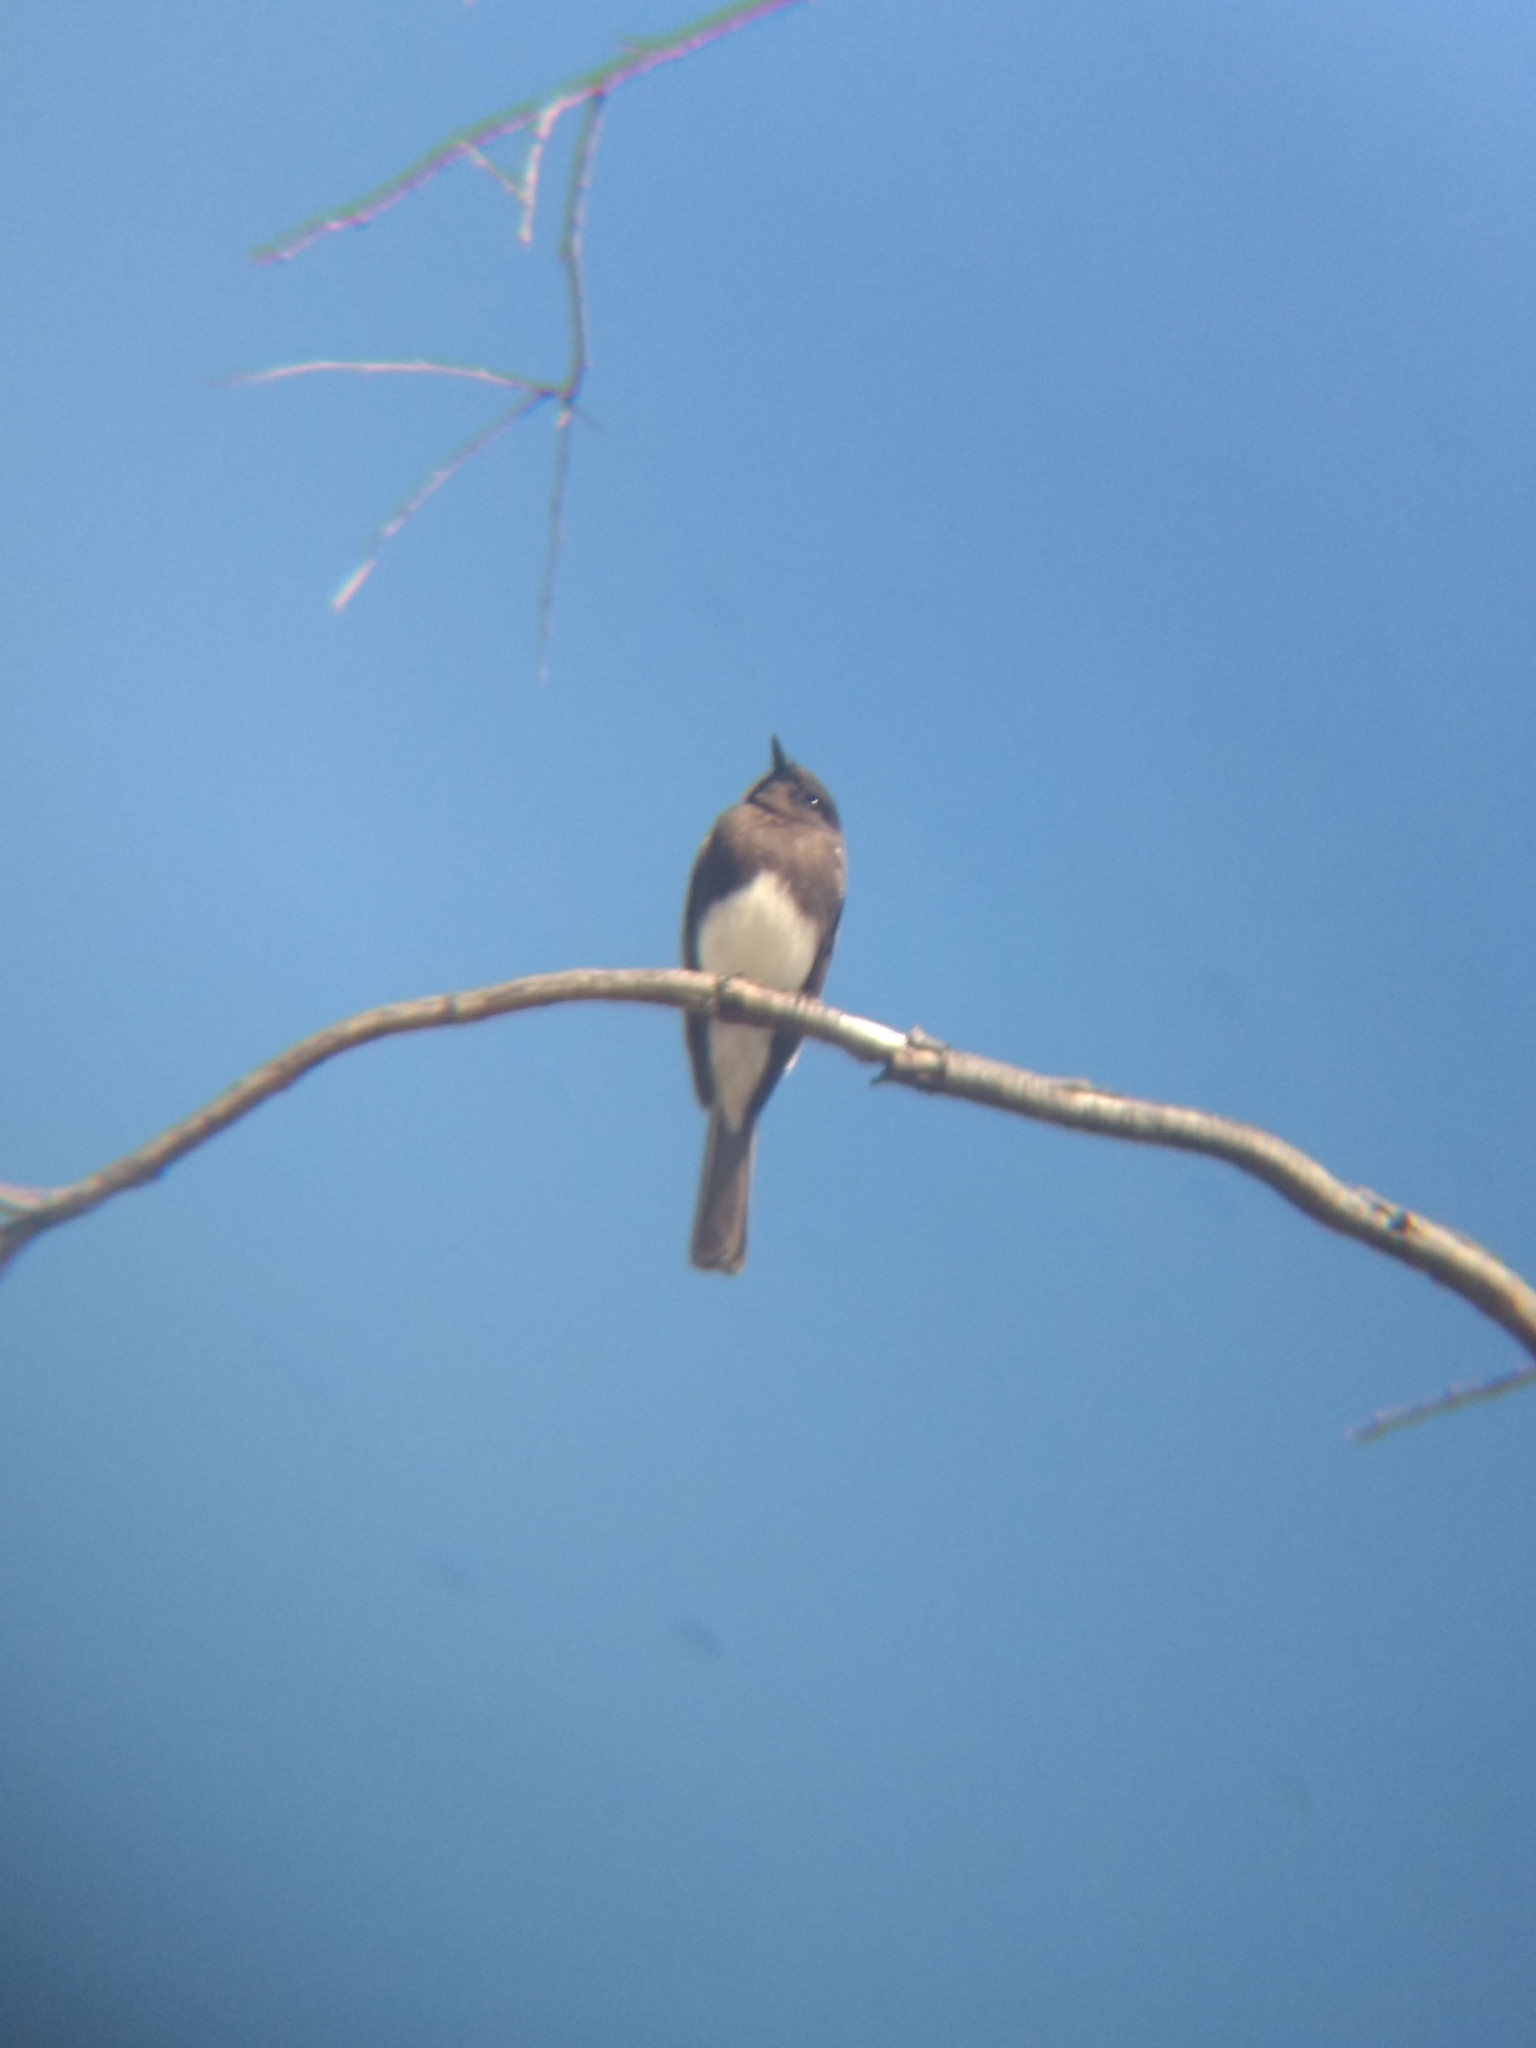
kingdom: Animalia
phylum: Chordata
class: Aves
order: Passeriformes
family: Tyrannidae
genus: Sayornis
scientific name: Sayornis nigricans
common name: Black phoebe
